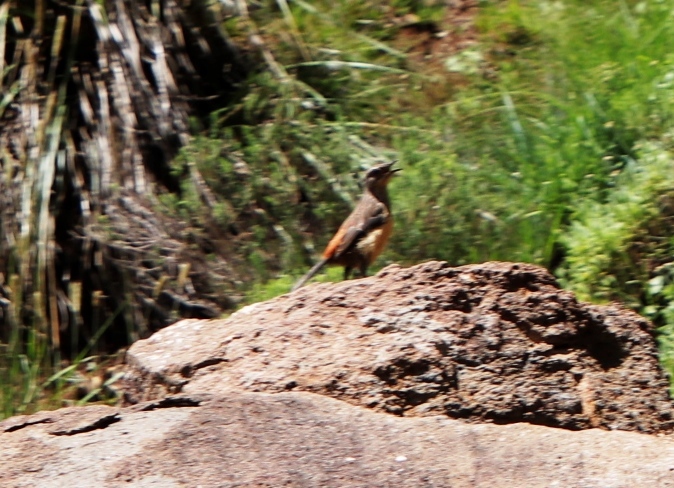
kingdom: Animalia
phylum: Chordata
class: Aves
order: Passeriformes
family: Chaetopidae
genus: Chaetops
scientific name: Chaetops aurantius
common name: Drakensberg rockjumper
